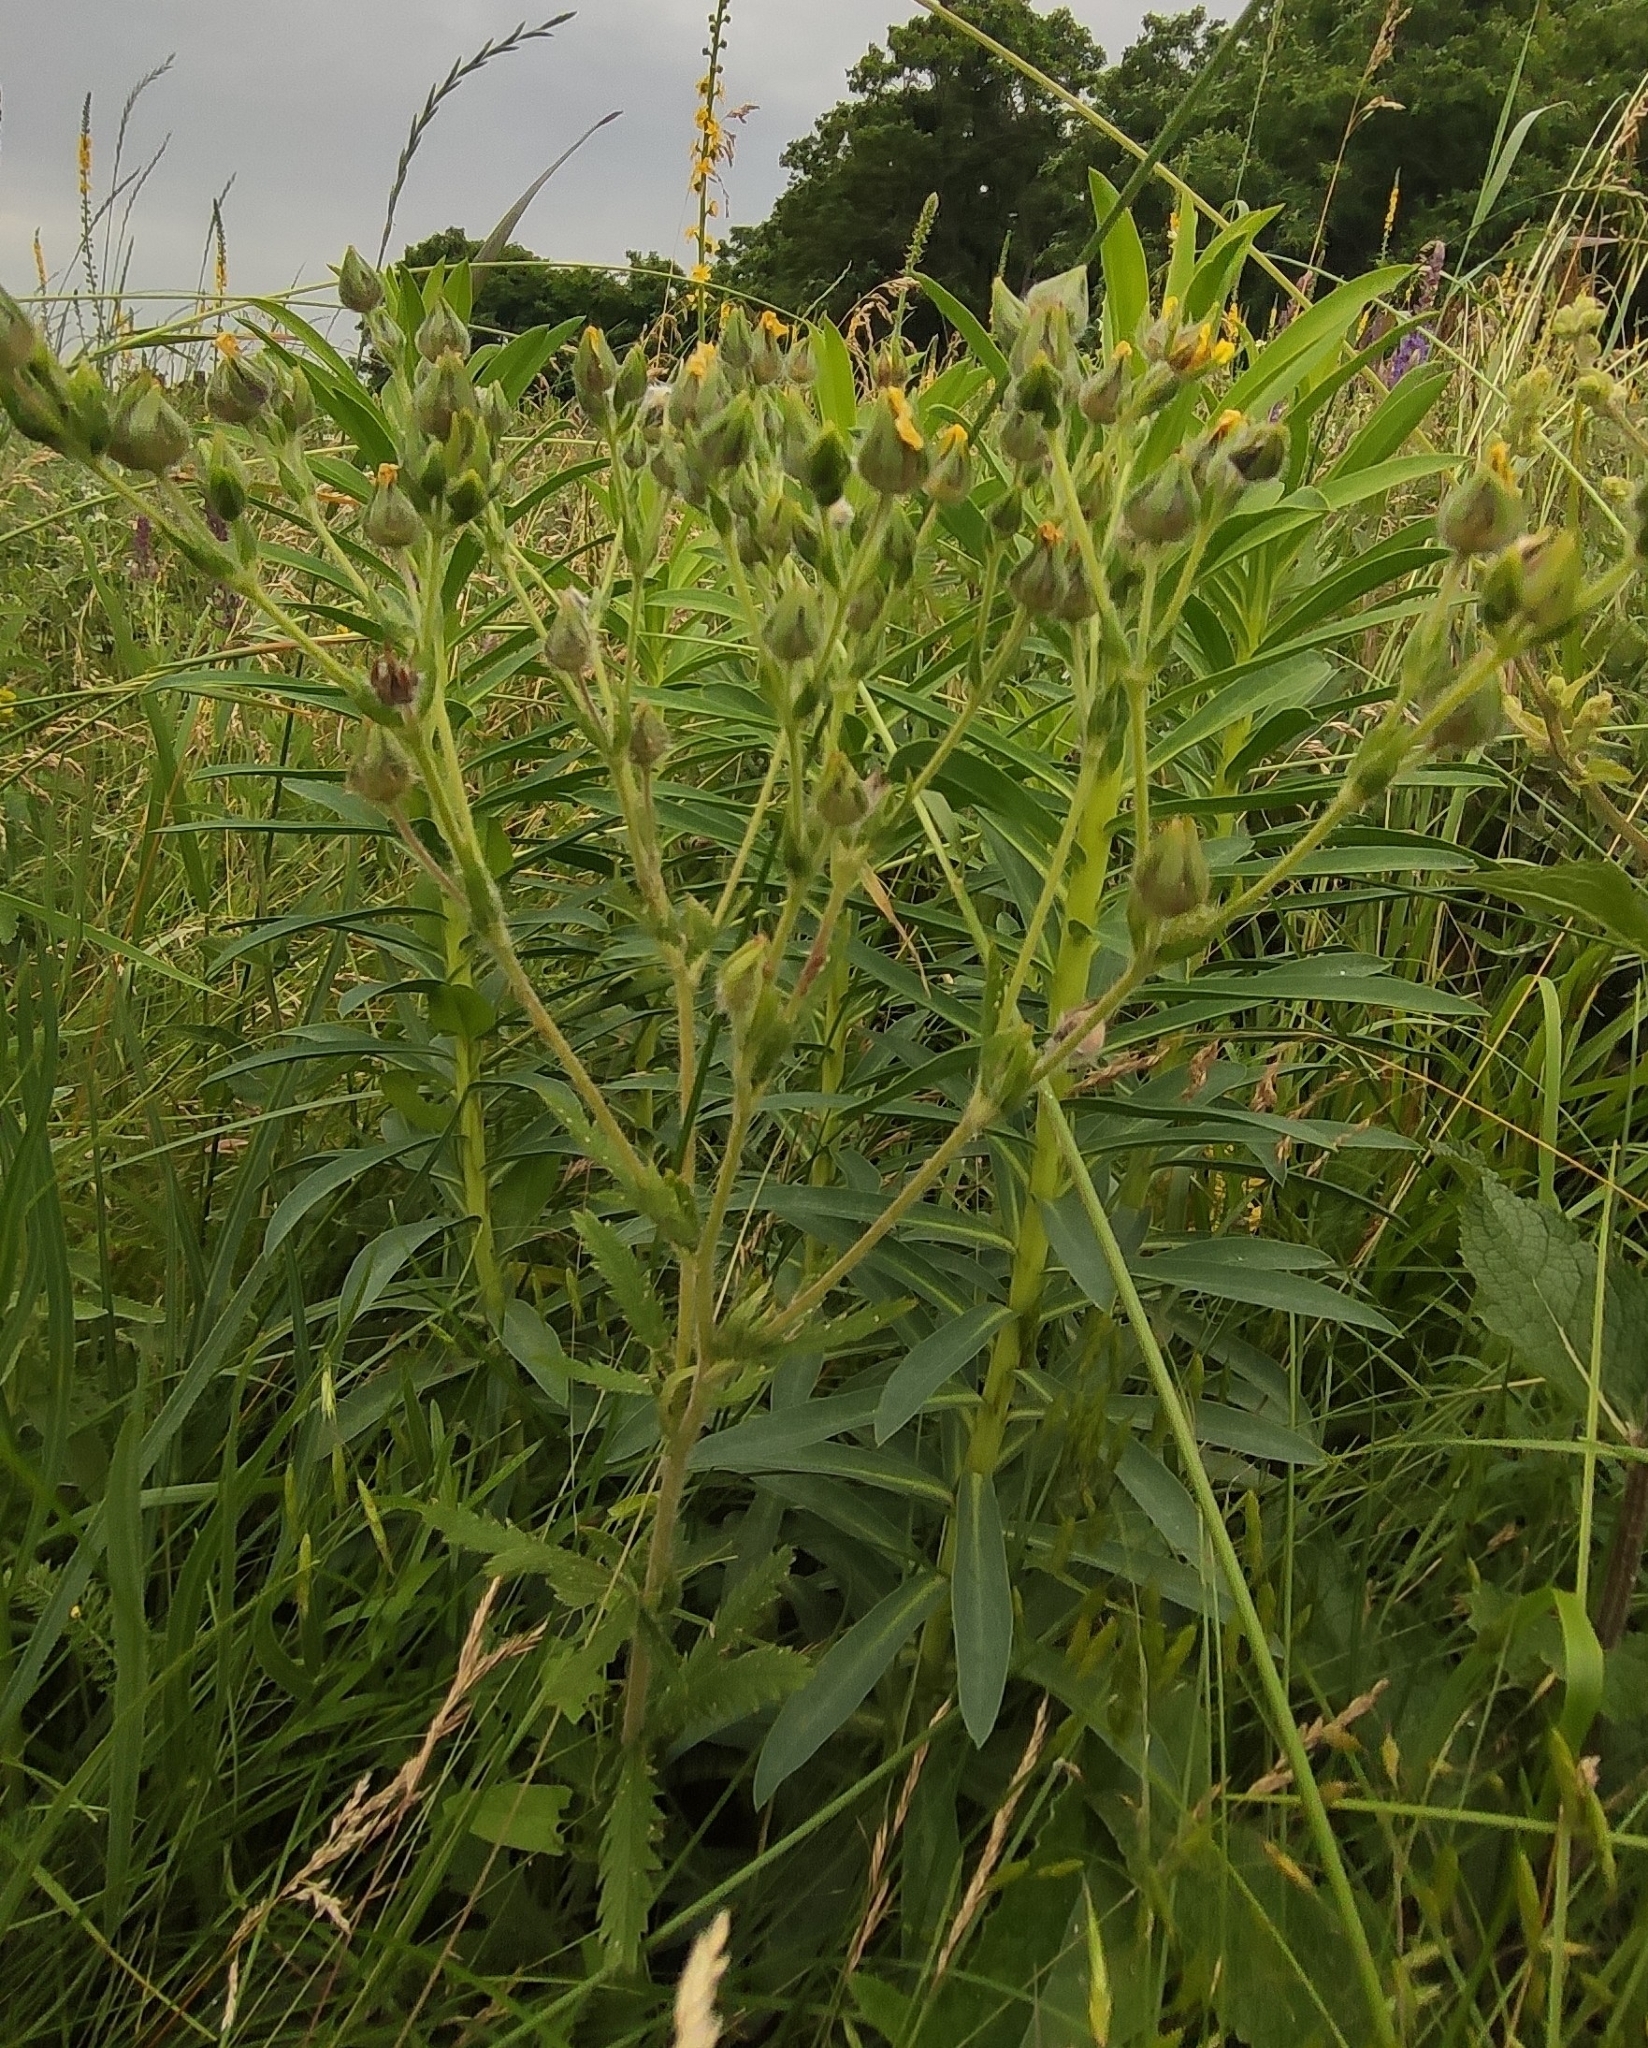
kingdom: Plantae
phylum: Tracheophyta
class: Magnoliopsida
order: Rosales
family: Rosaceae
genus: Potentilla
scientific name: Potentilla recta
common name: Sulphur cinquefoil
